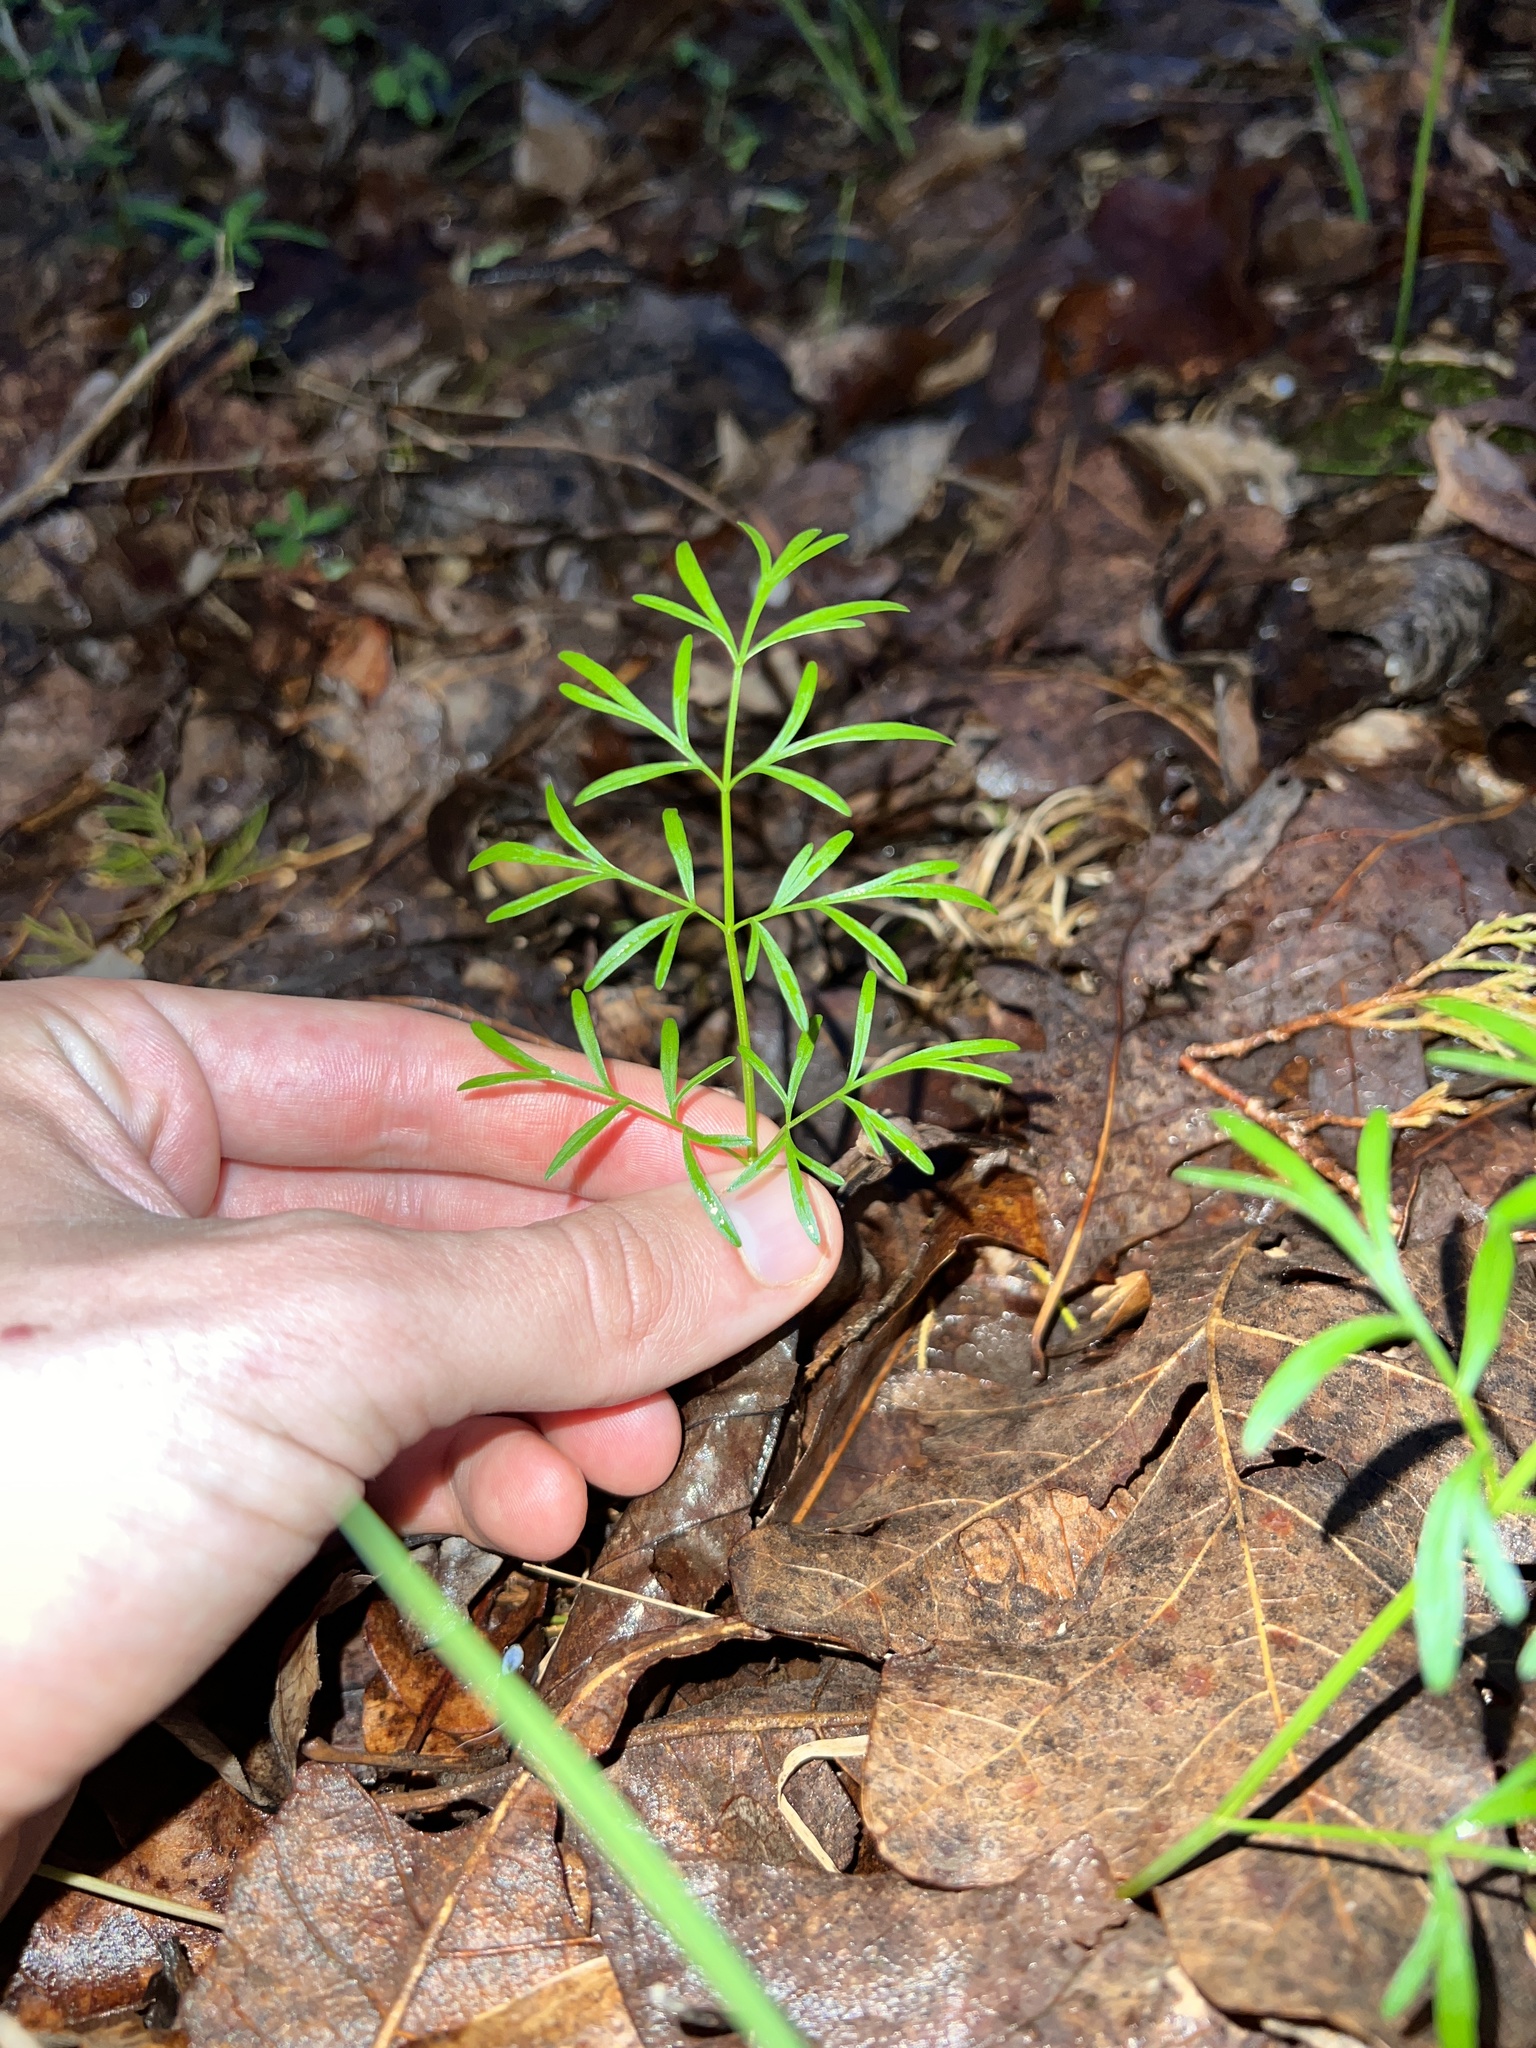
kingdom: Plantae
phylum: Tracheophyta
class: Magnoliopsida
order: Apiales
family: Apiaceae
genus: Perideridia
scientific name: Perideridia americana
